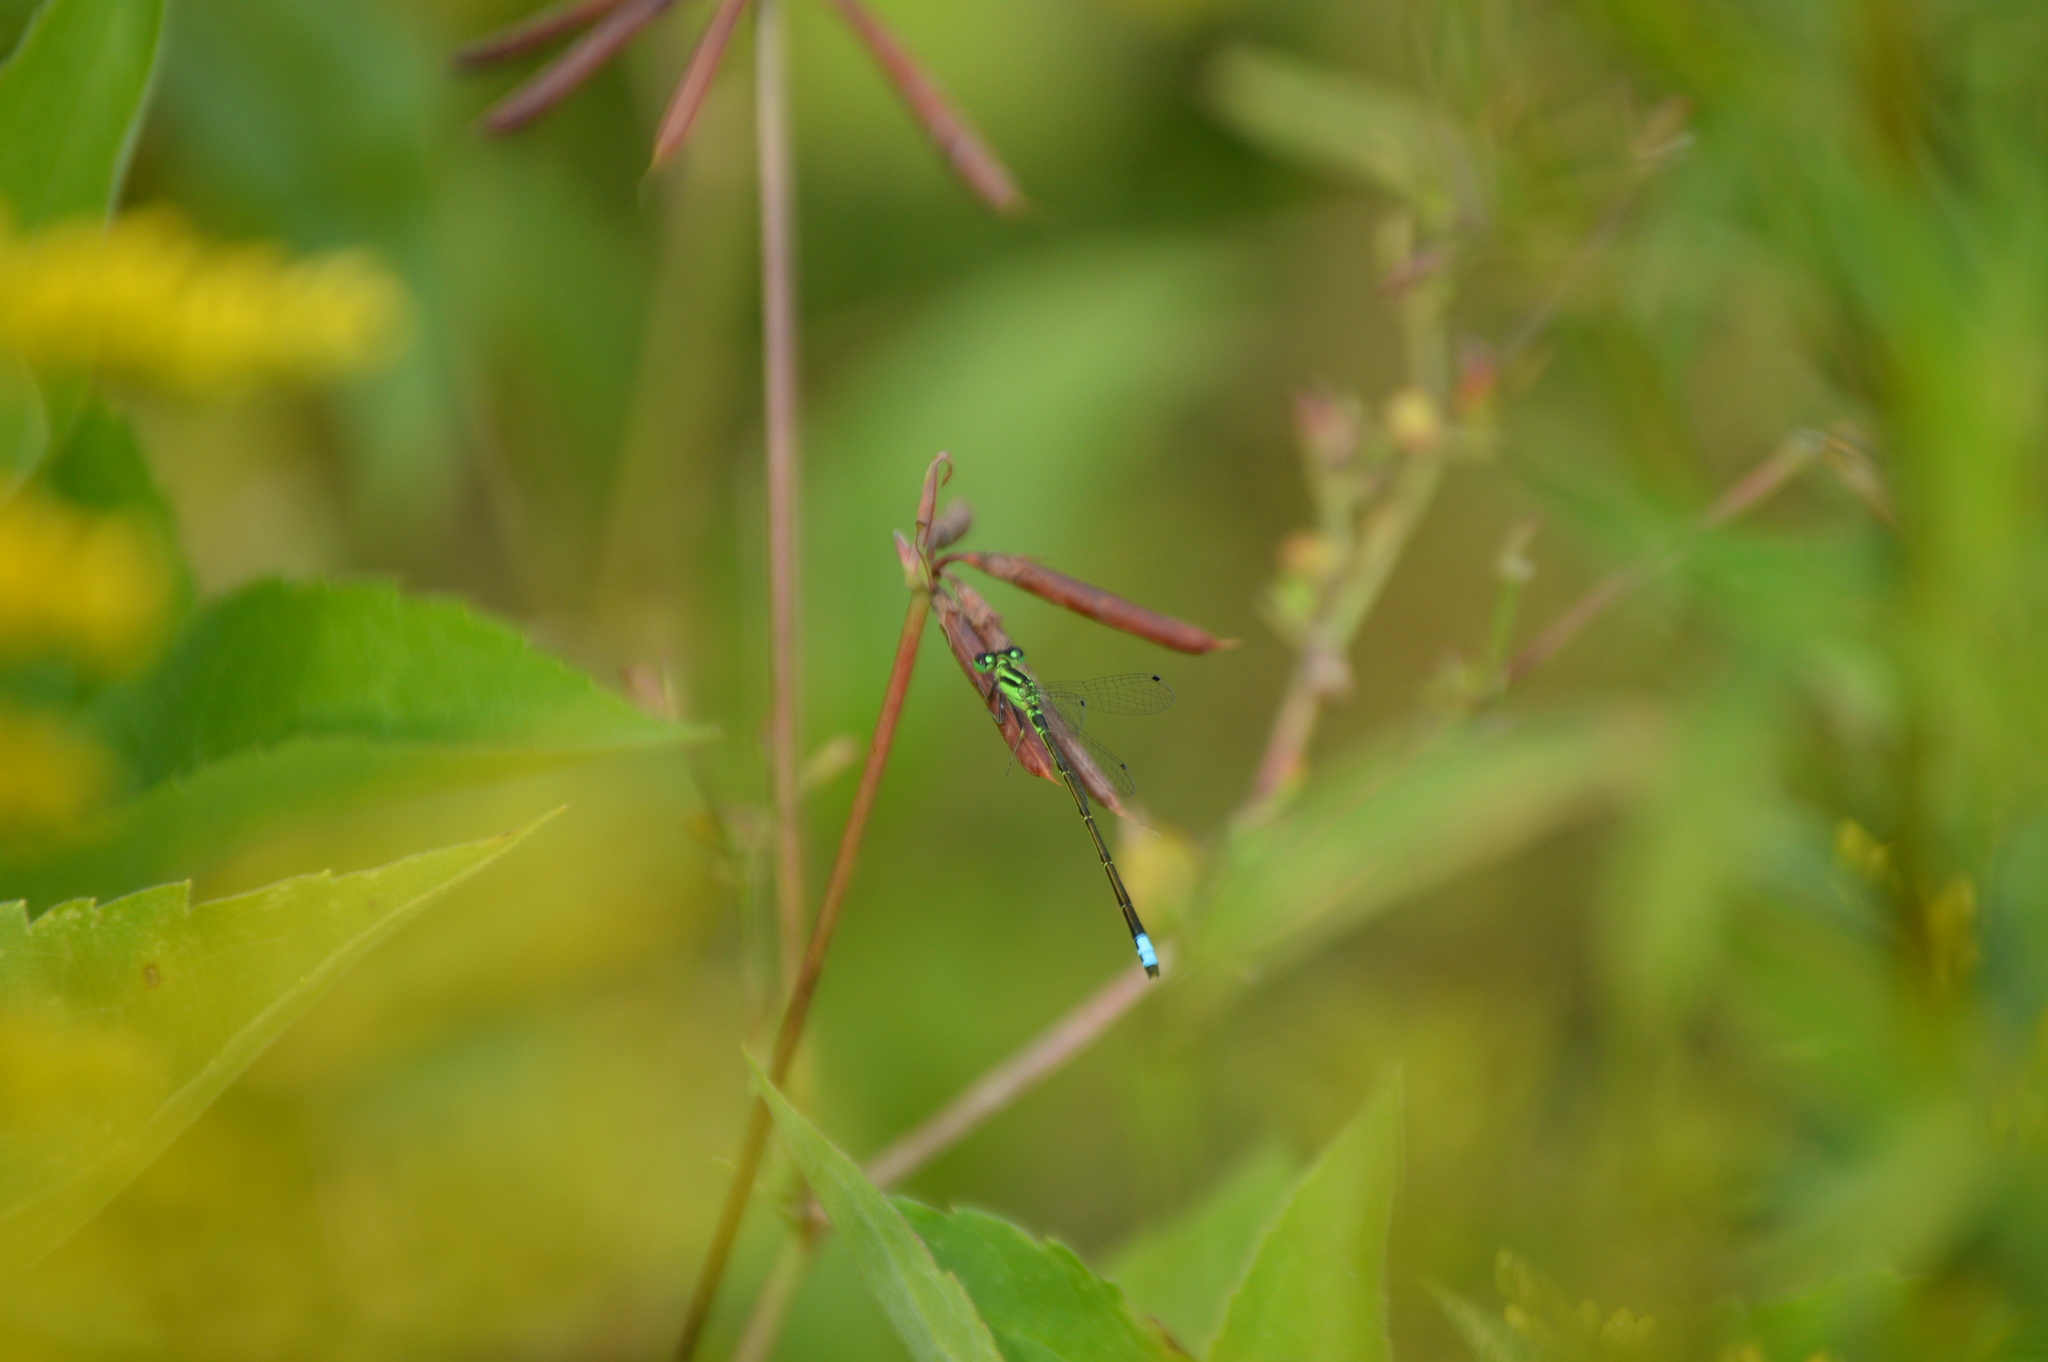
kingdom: Animalia
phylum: Arthropoda
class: Insecta
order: Odonata
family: Coenagrionidae
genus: Ischnura
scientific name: Ischnura verticalis
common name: Eastern forktail
